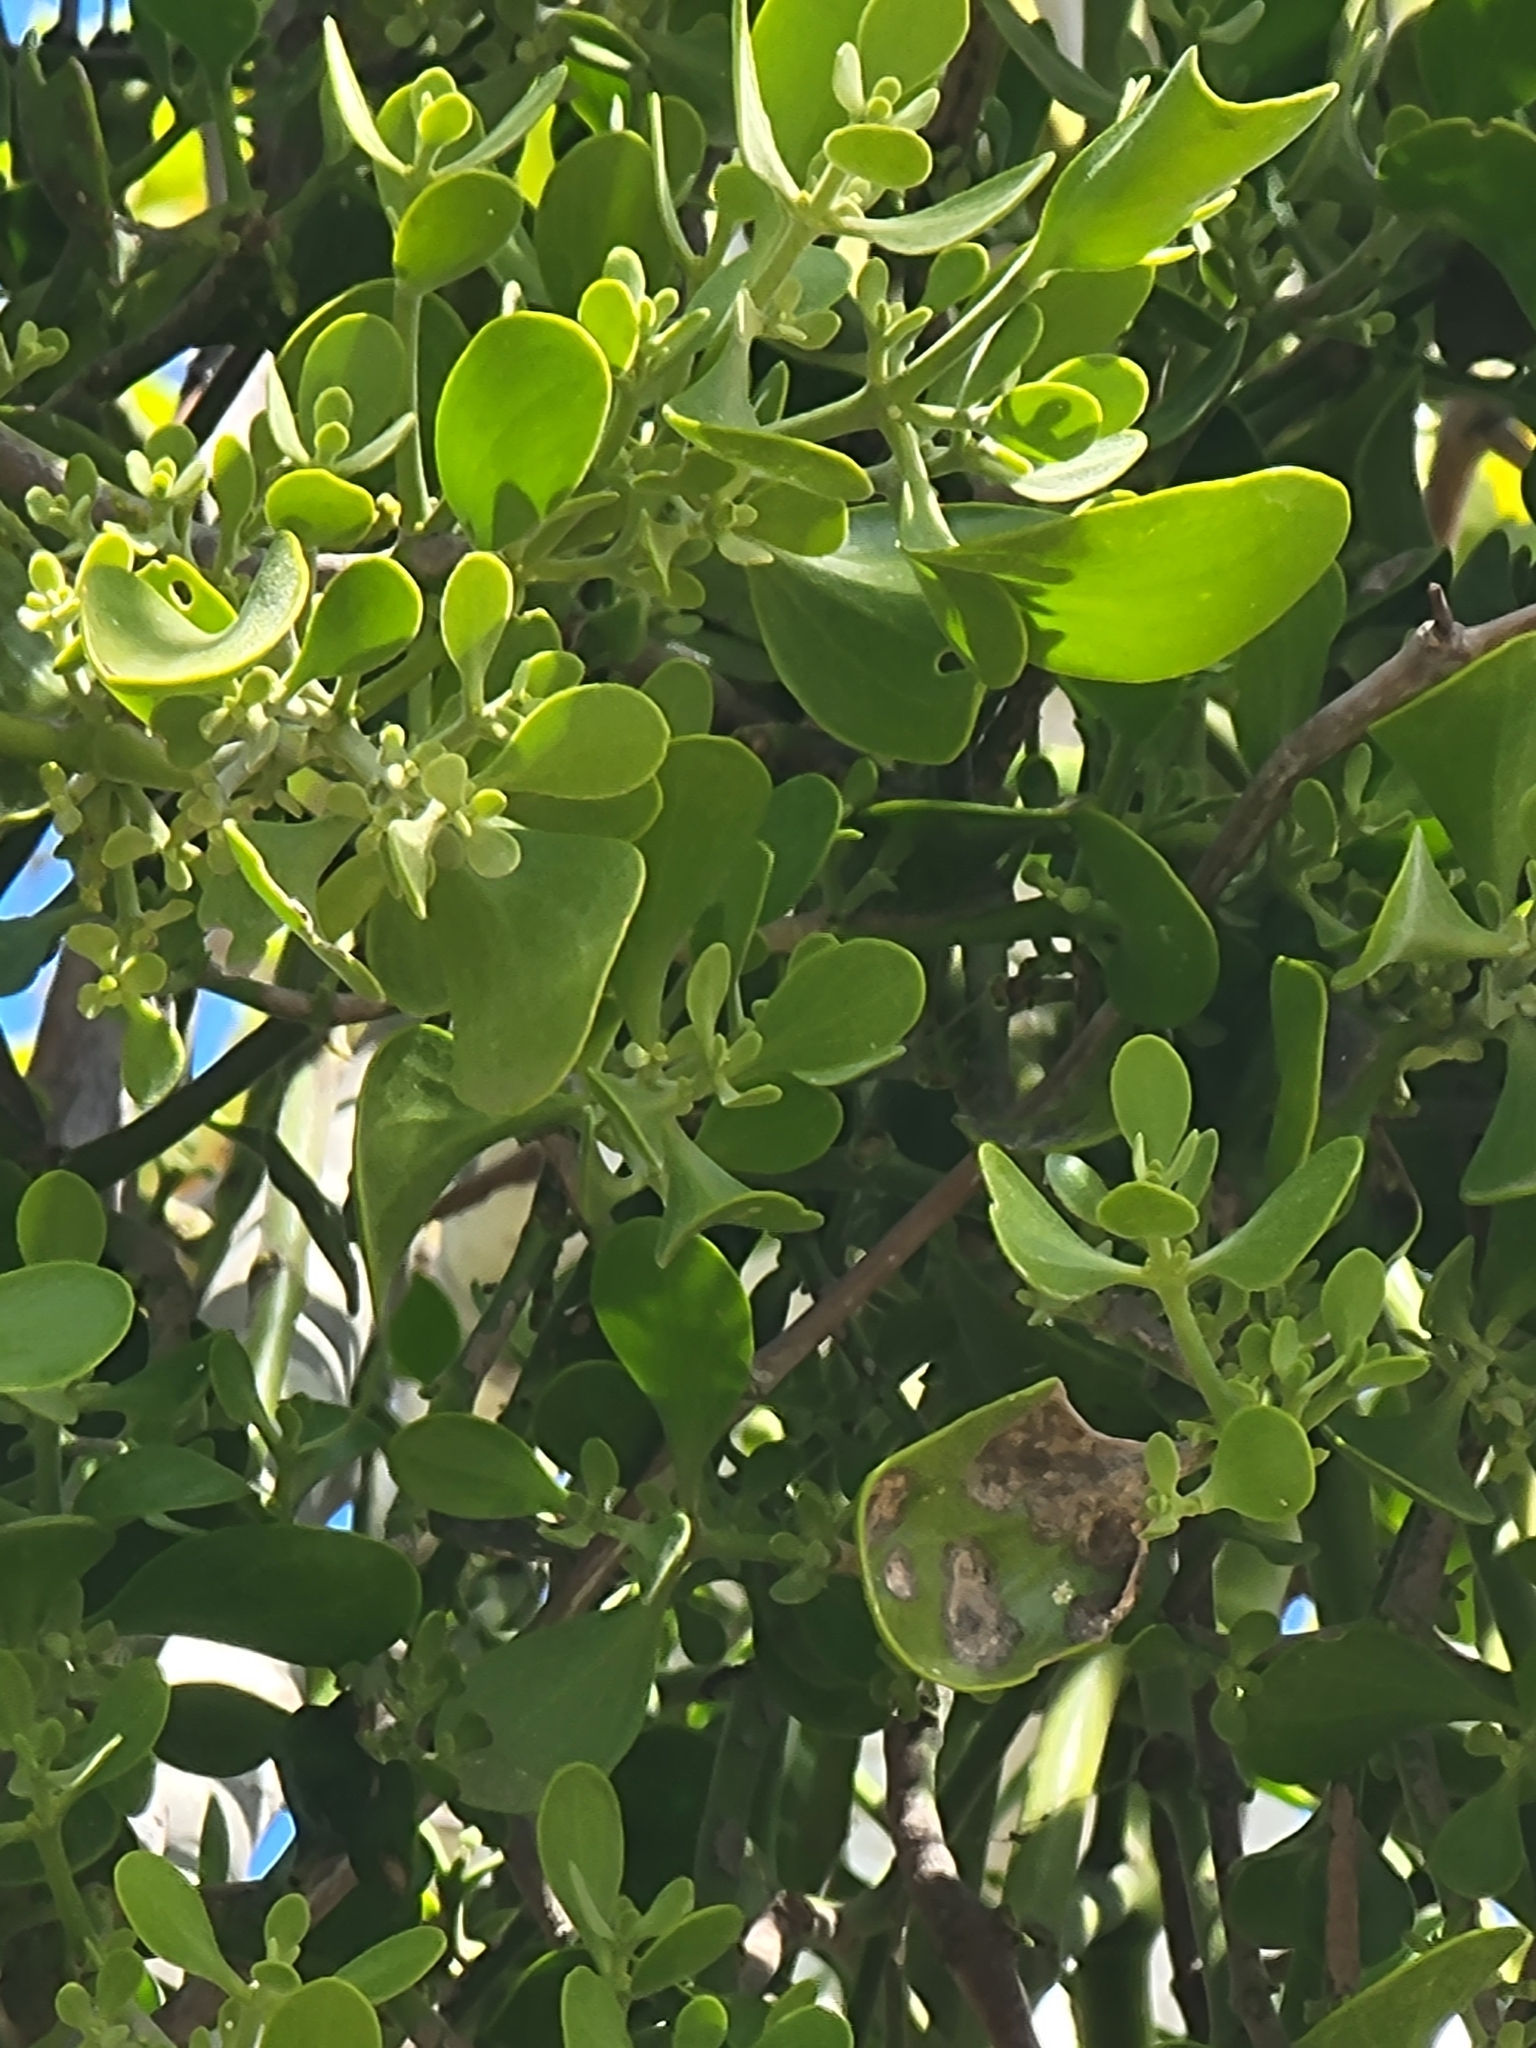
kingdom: Plantae
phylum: Tracheophyta
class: Magnoliopsida
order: Santalales
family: Viscaceae
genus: Phoradendron
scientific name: Phoradendron
